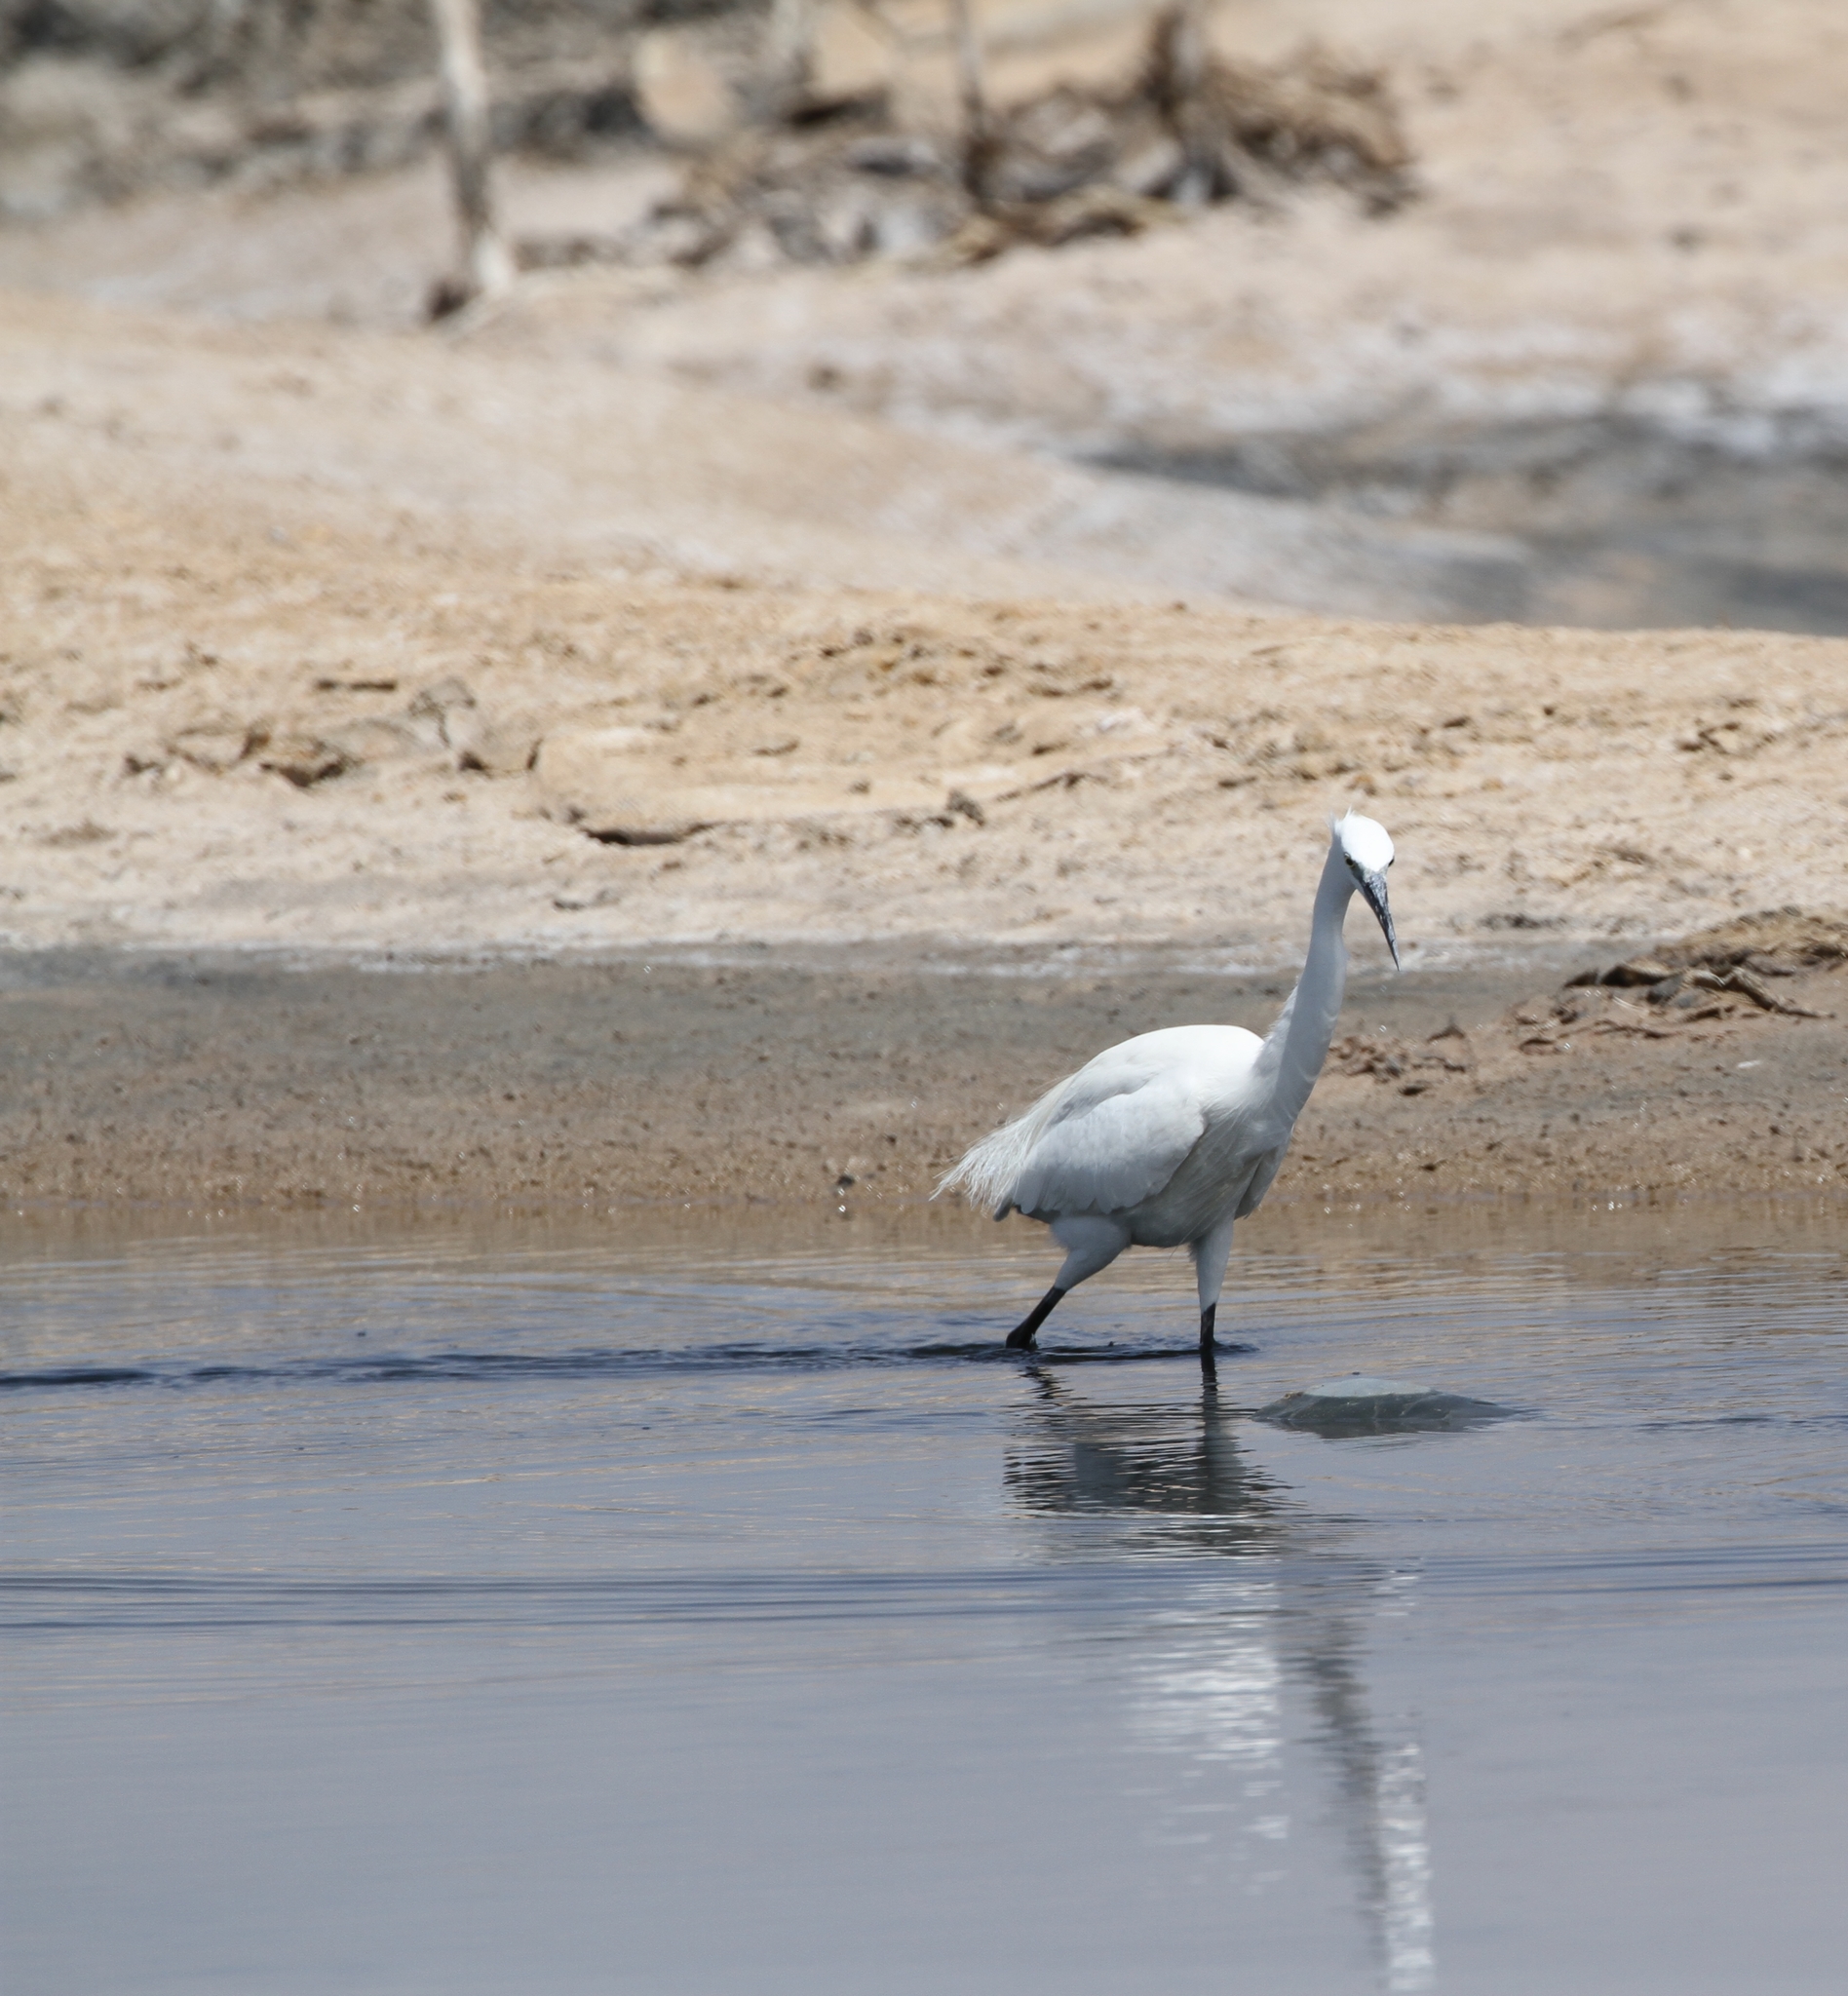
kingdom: Animalia
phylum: Chordata
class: Aves
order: Pelecaniformes
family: Ardeidae
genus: Egretta
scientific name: Egretta garzetta
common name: Little egret
